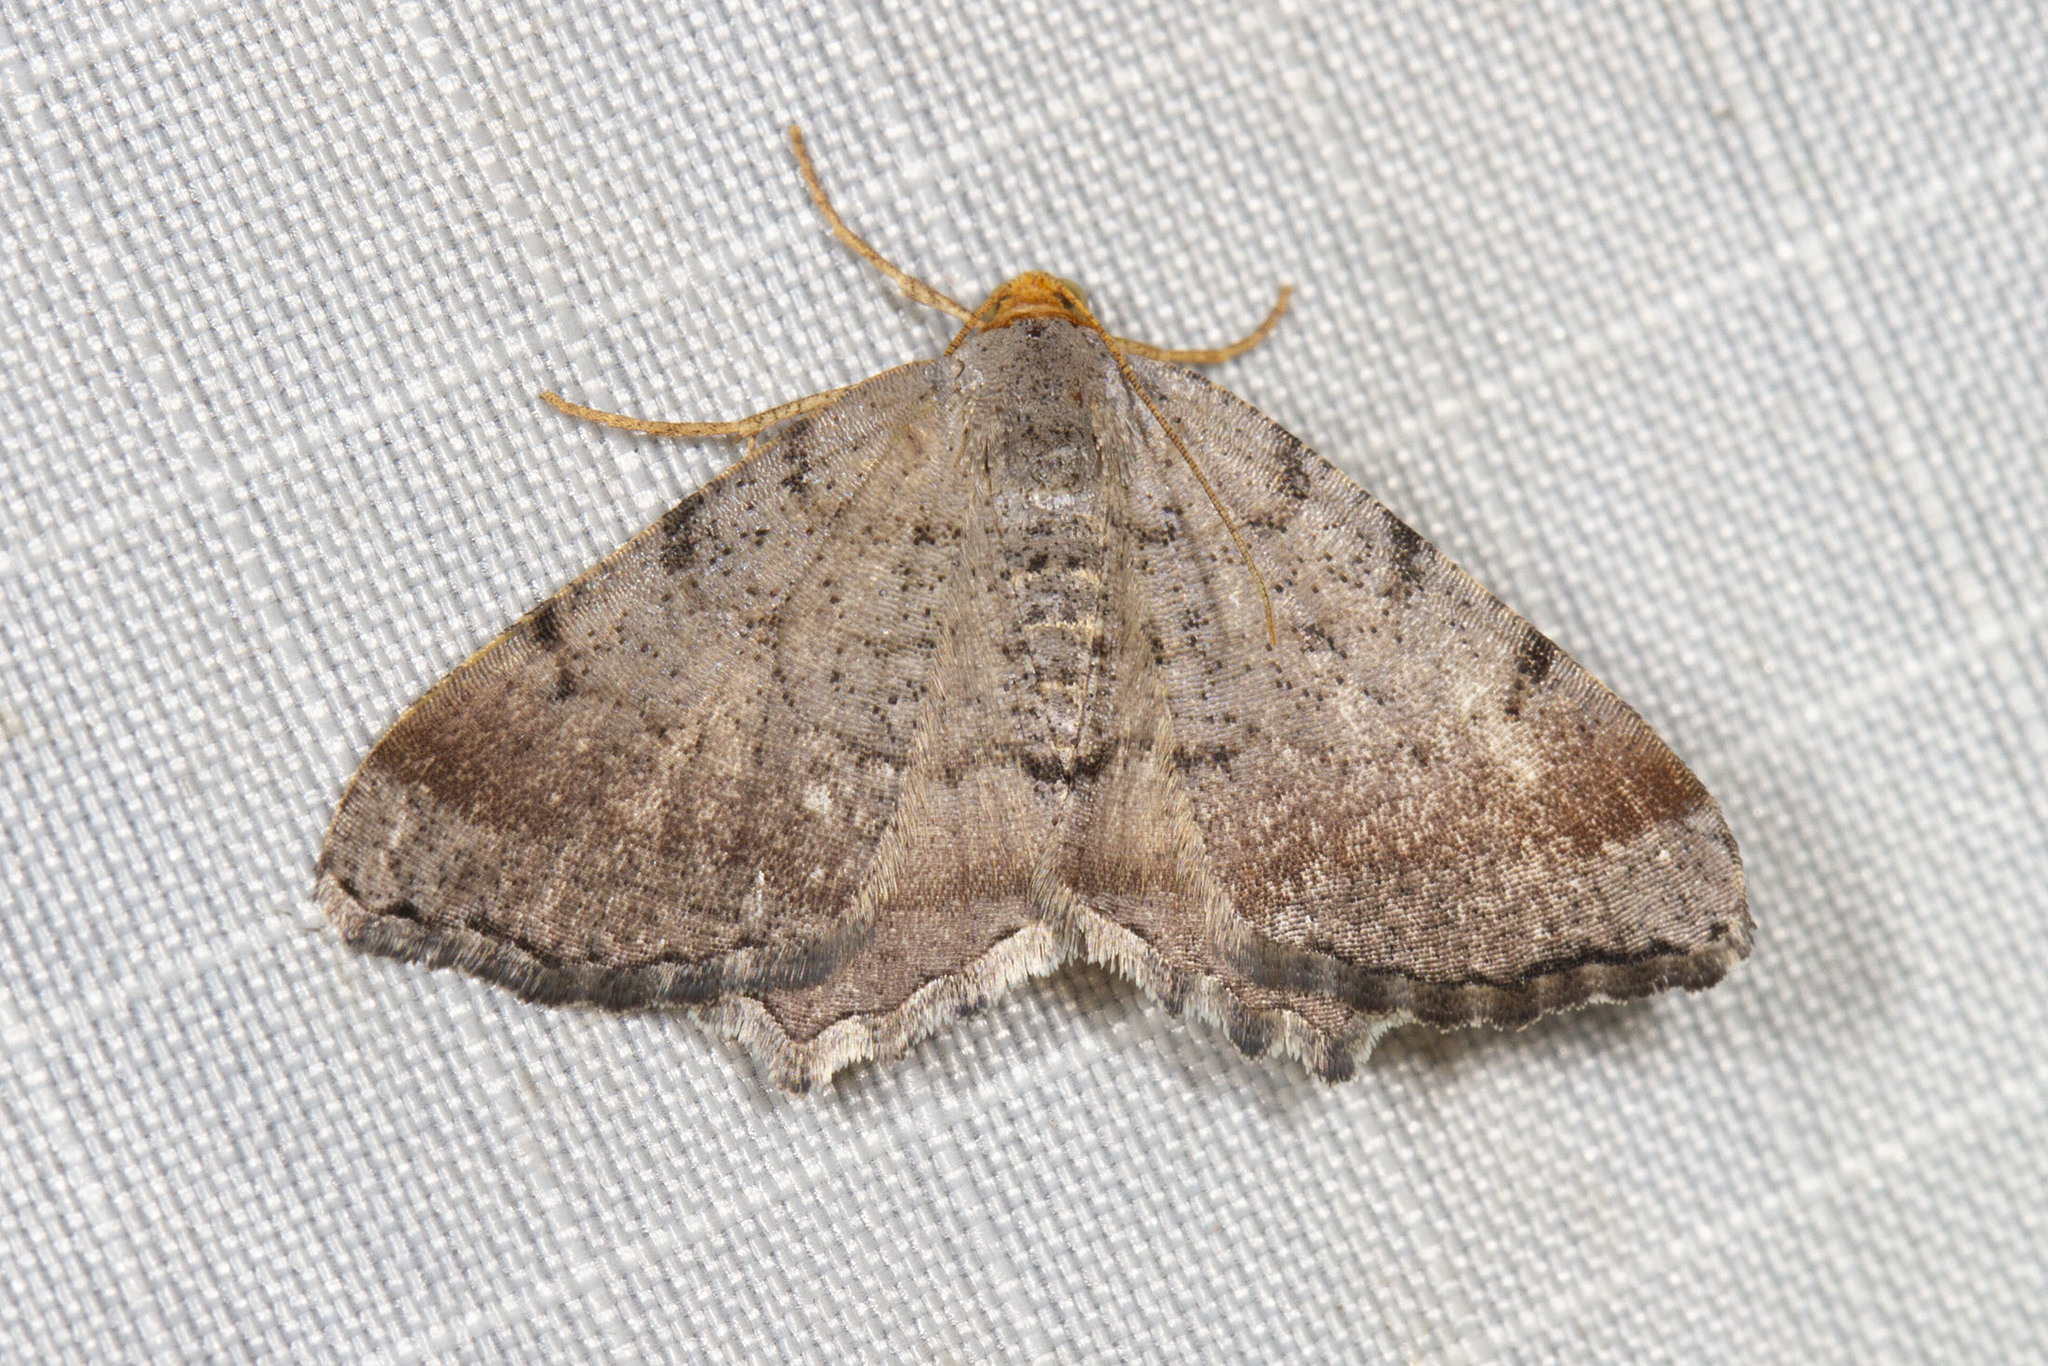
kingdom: Animalia
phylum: Arthropoda
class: Insecta
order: Lepidoptera
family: Geometridae
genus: Macaria
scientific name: Macaria minorata
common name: Minor angle moth
